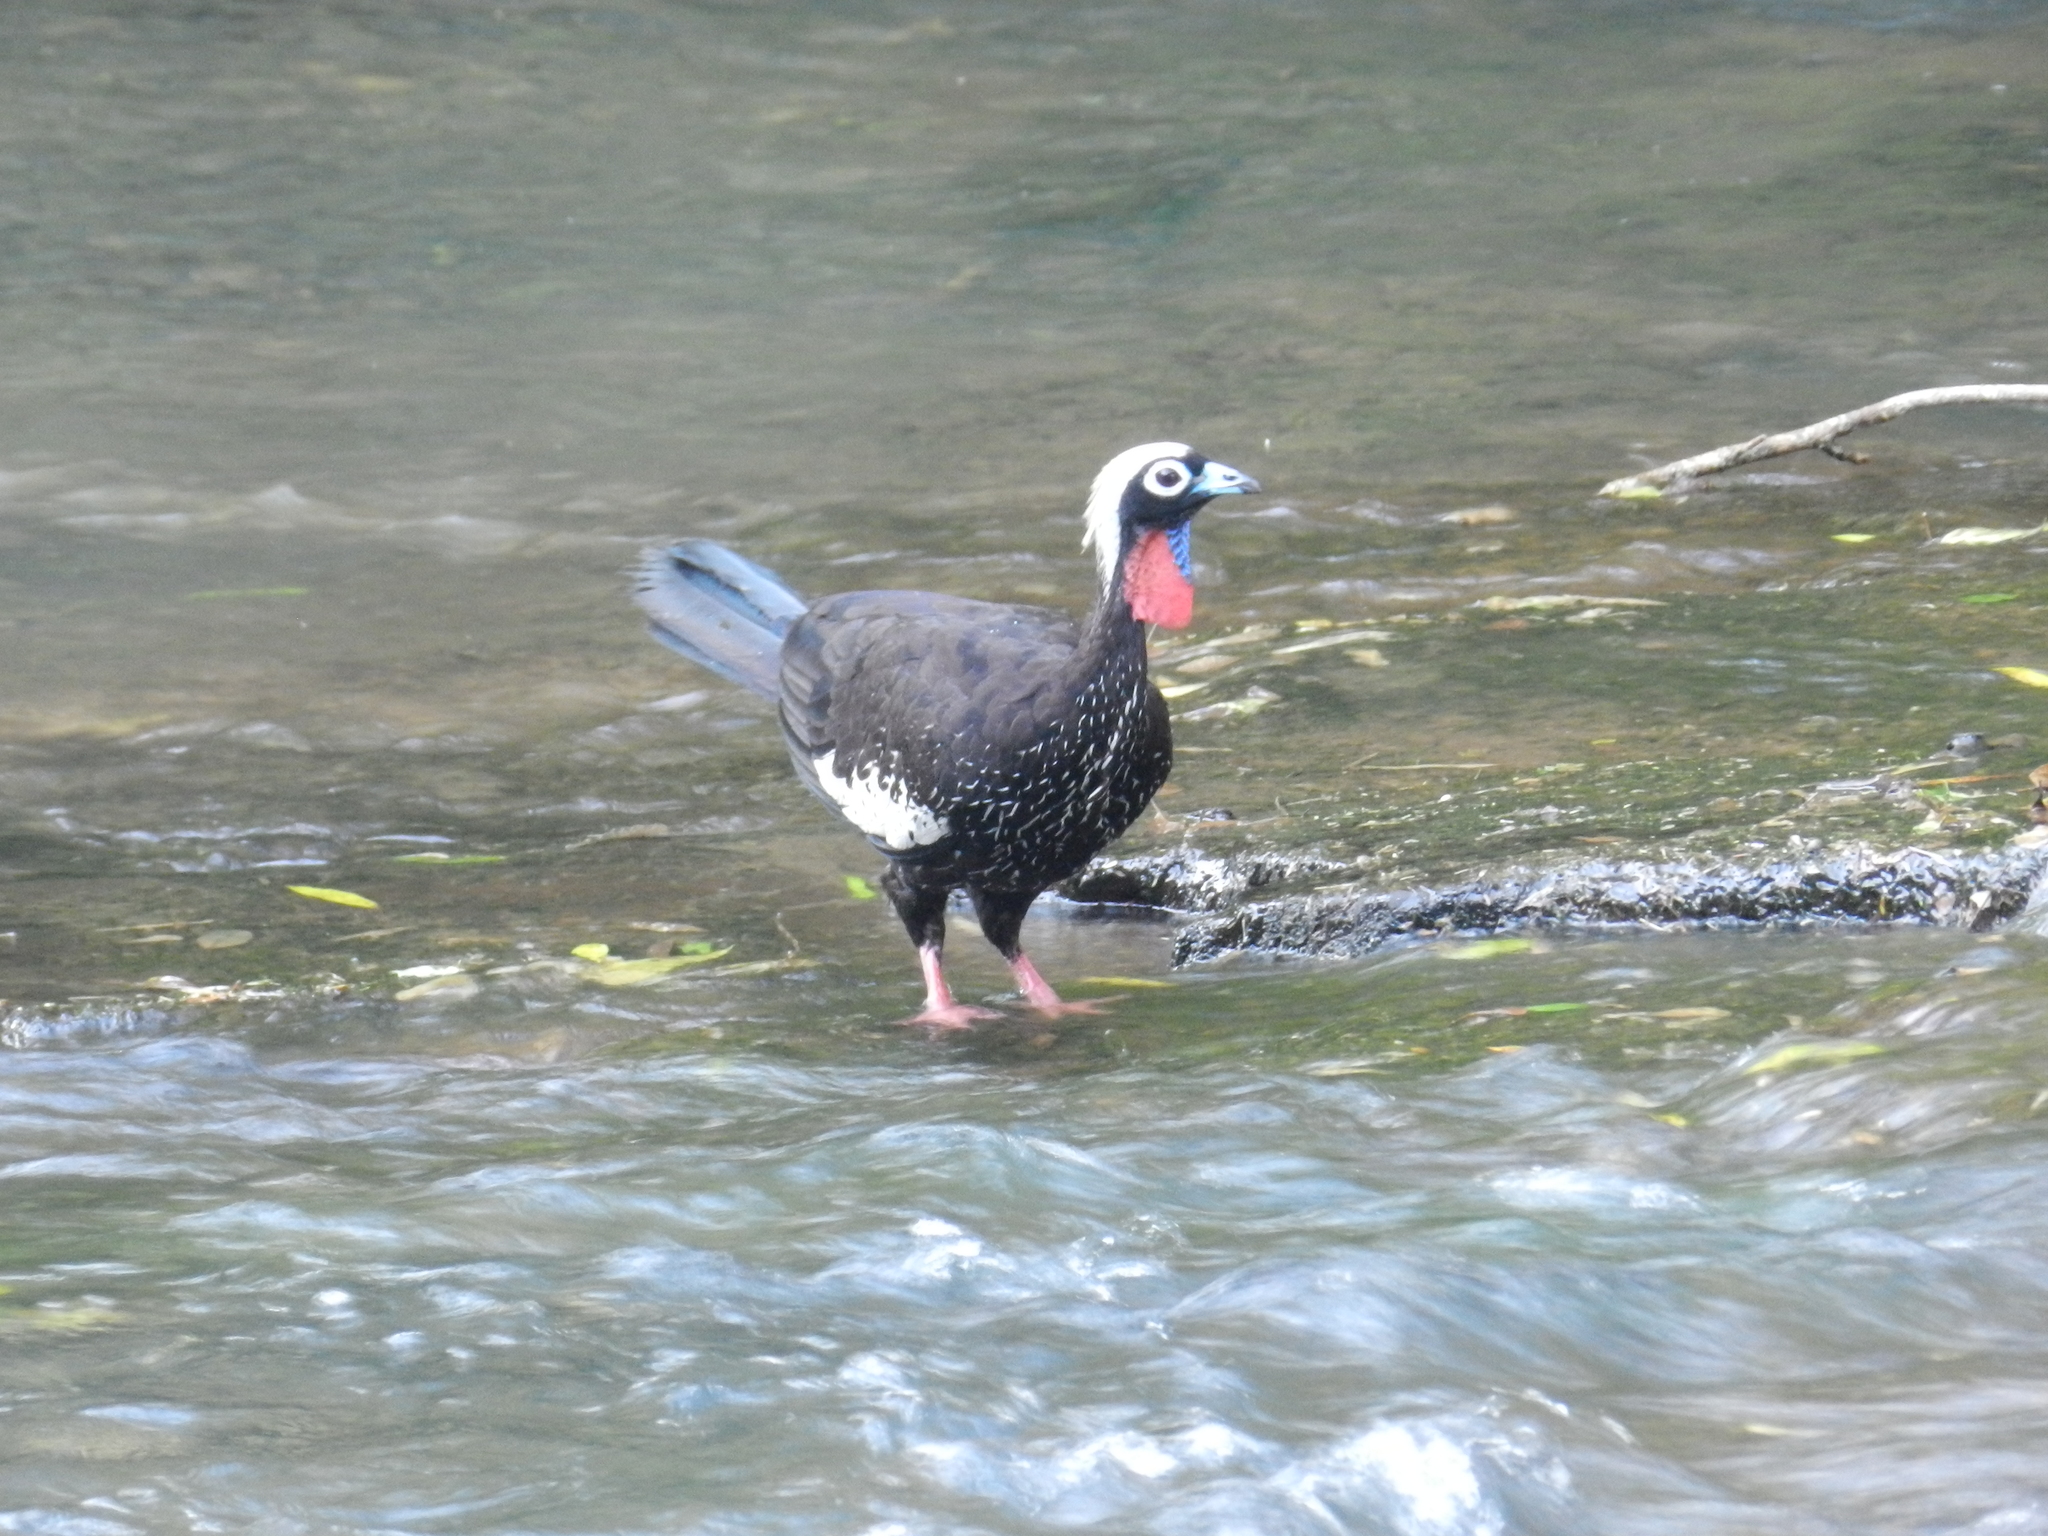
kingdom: Animalia
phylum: Chordata
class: Aves
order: Galliformes
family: Cracidae
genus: Pipile
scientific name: Pipile jacutinga
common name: Black-fronted piping-guan
